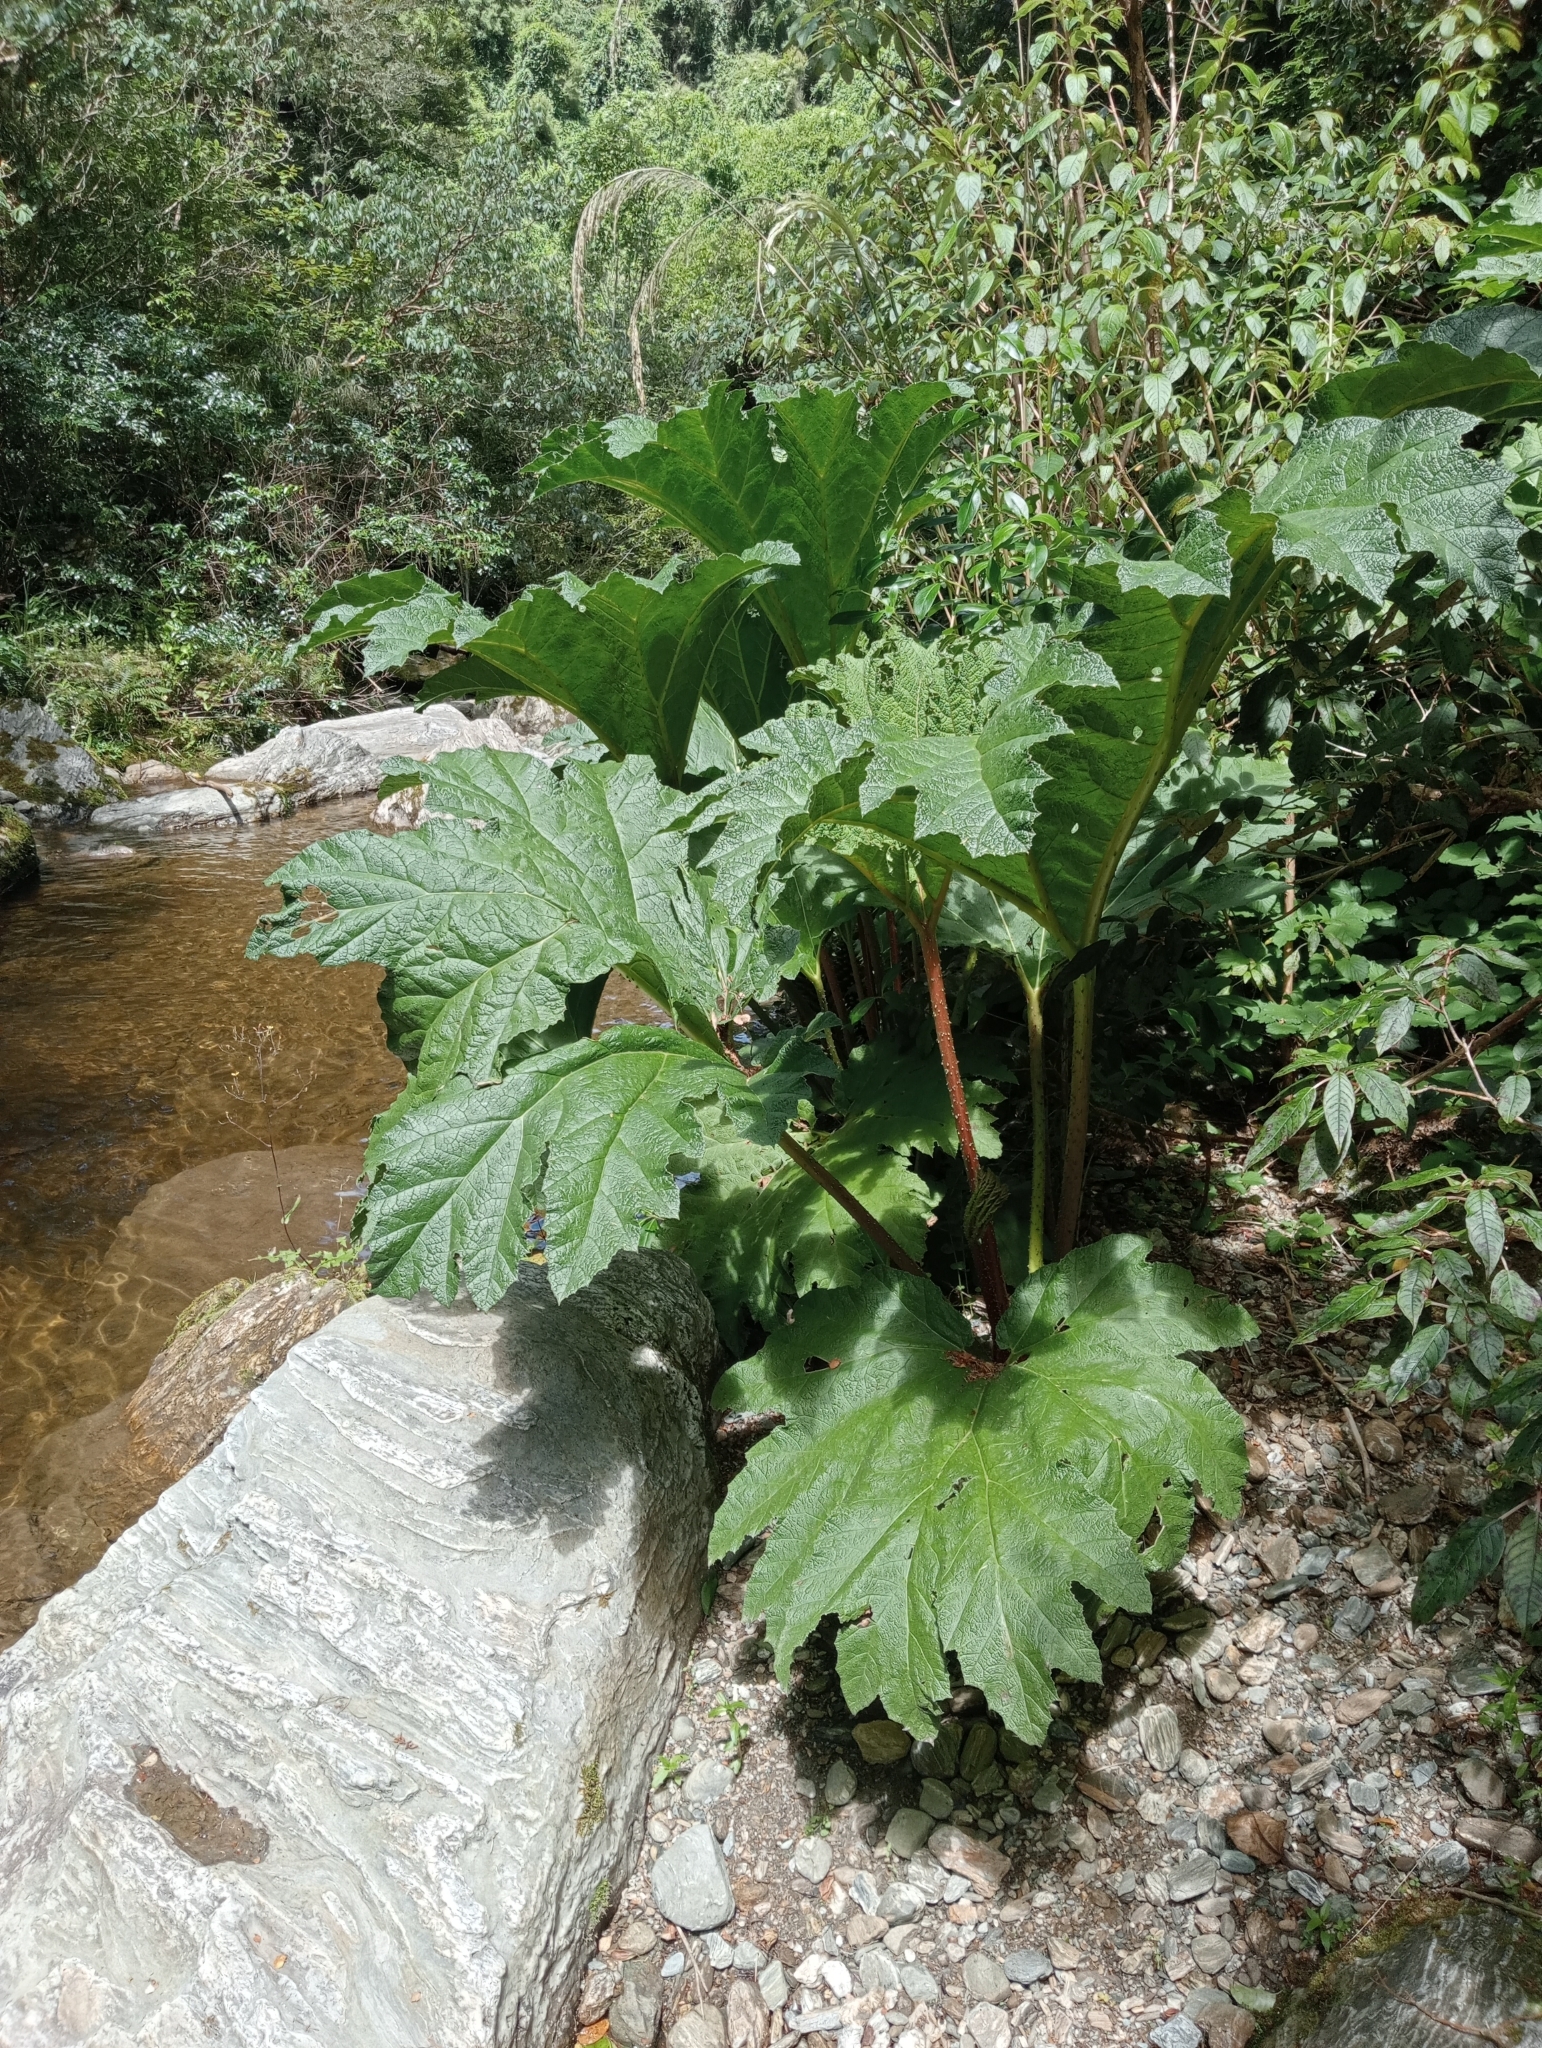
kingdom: Plantae
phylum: Tracheophyta
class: Magnoliopsida
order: Gunnerales
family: Gunneraceae
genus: Gunnera
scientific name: Gunnera tinctoria
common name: Giant-rhubarb
